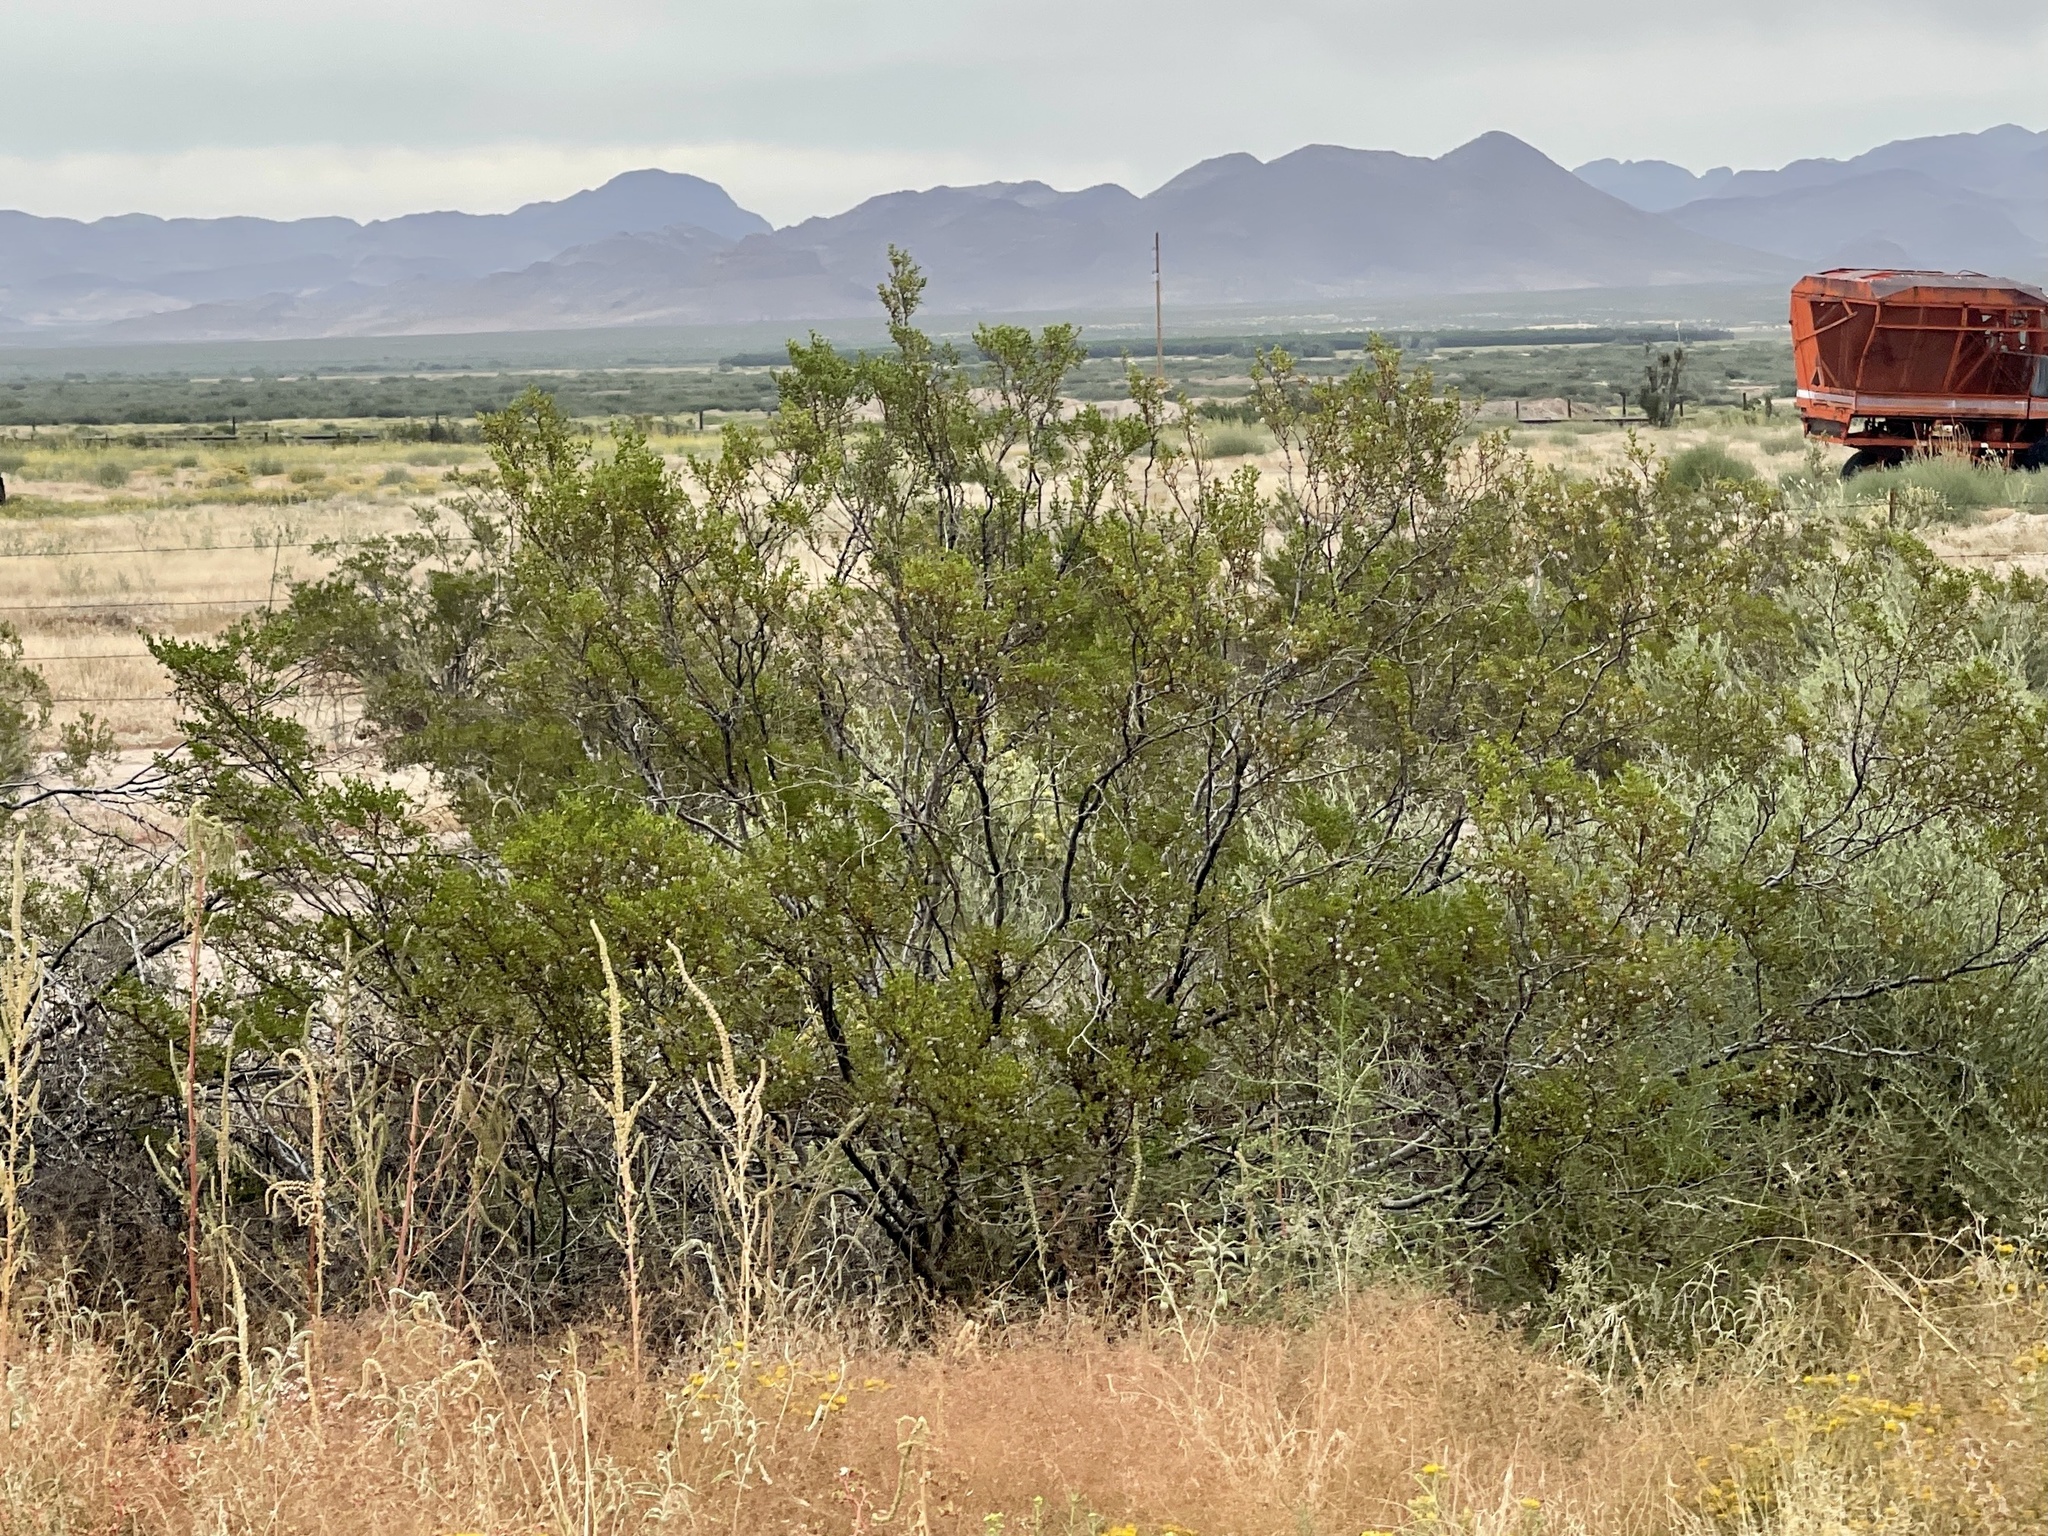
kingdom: Plantae
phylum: Tracheophyta
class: Magnoliopsida
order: Zygophyllales
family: Zygophyllaceae
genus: Larrea
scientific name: Larrea tridentata
